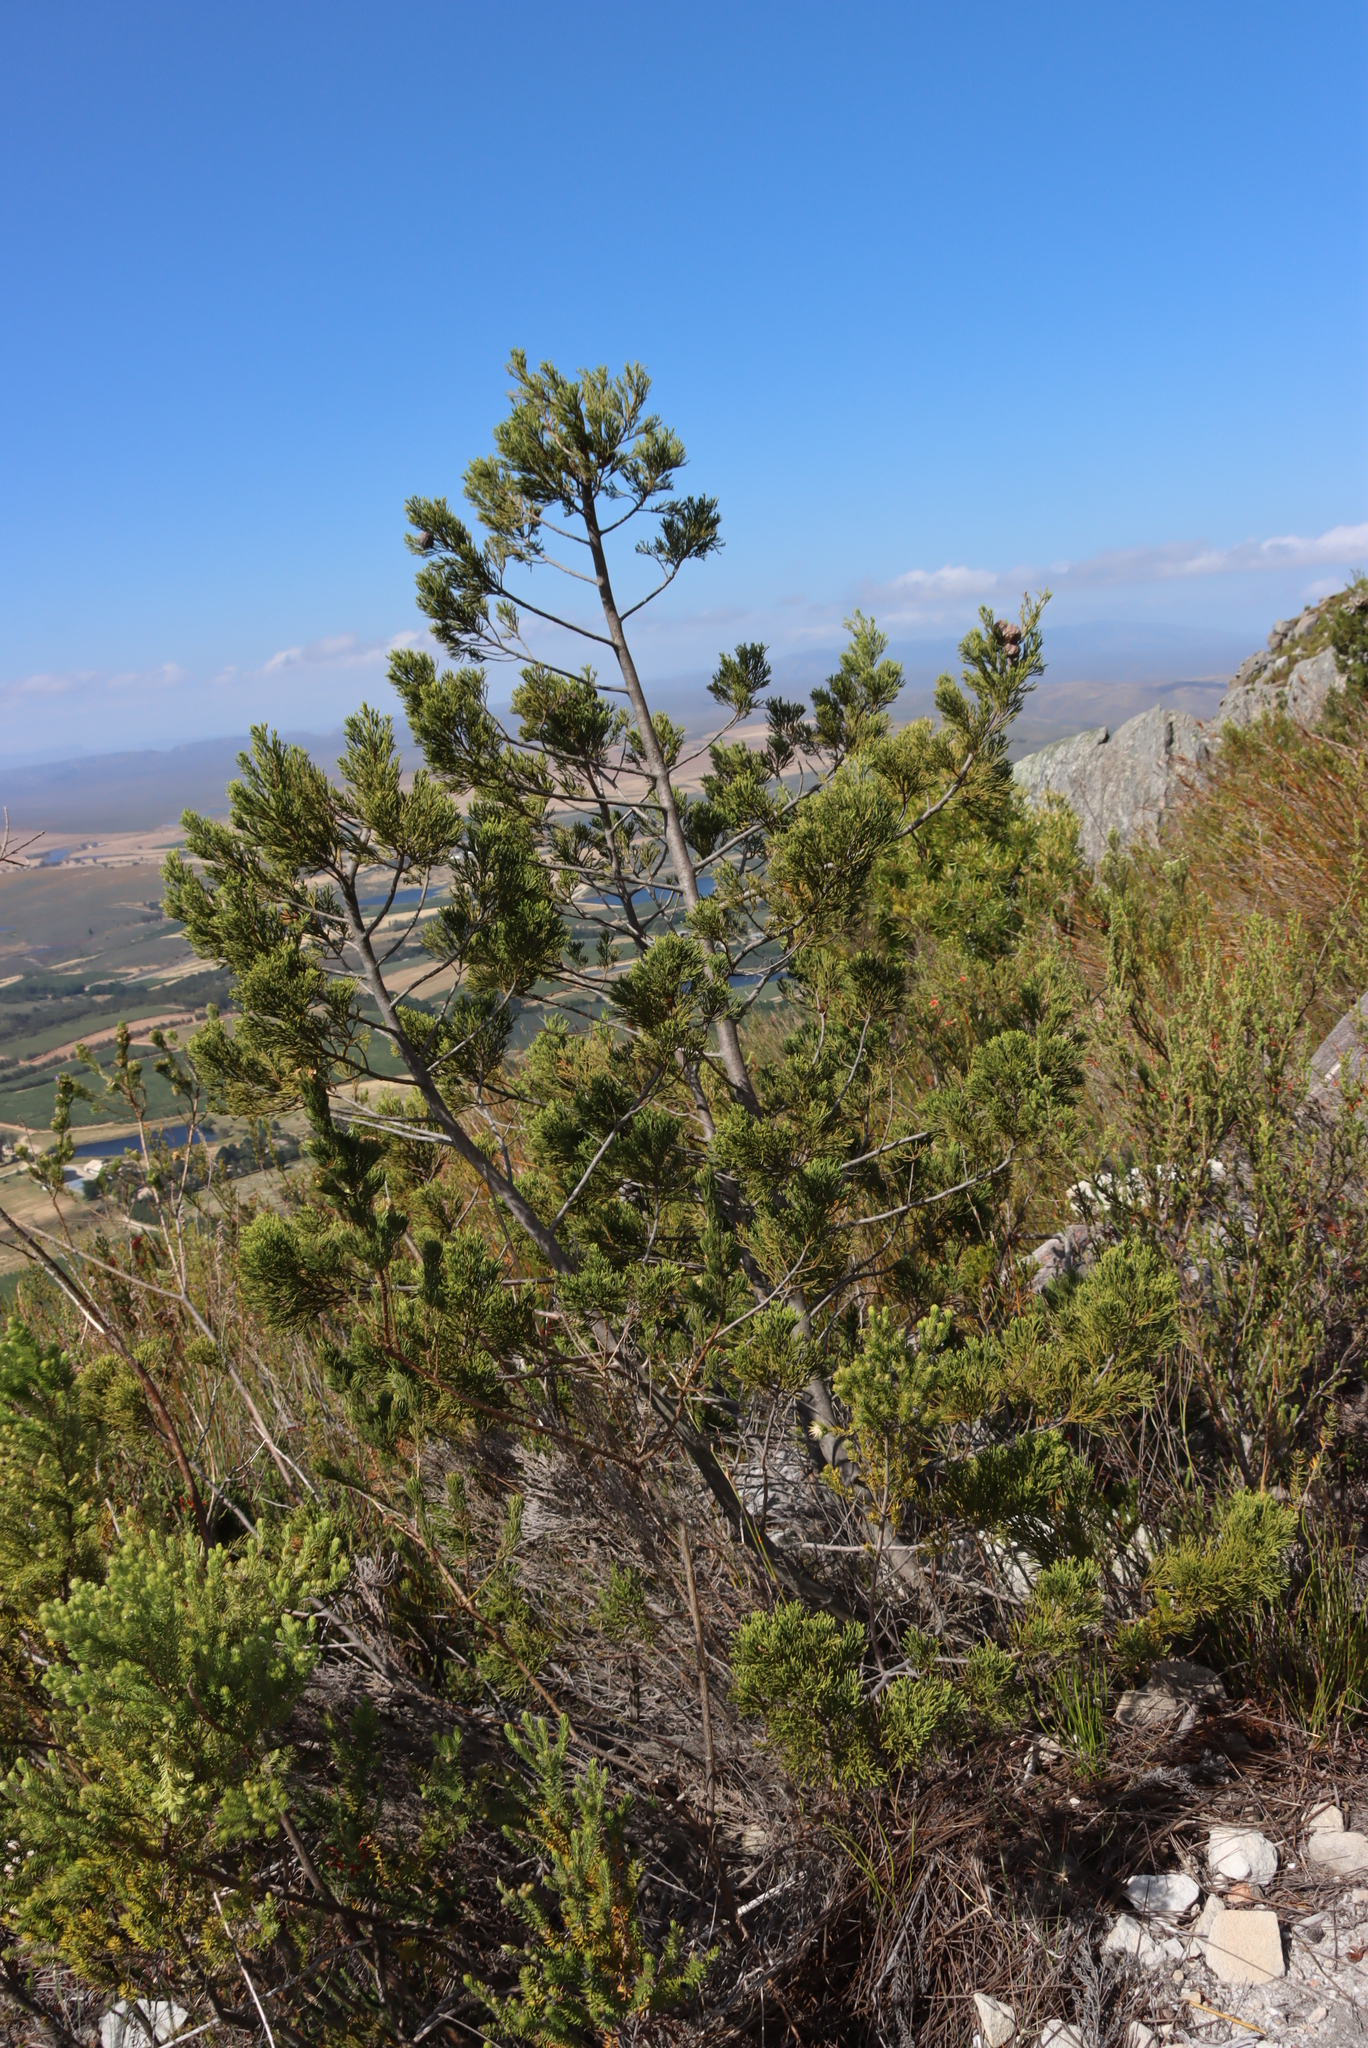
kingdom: Plantae
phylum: Tracheophyta
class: Pinopsida
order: Pinales
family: Cupressaceae
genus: Widdringtonia
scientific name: Widdringtonia nodiflora
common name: Cape cypress
